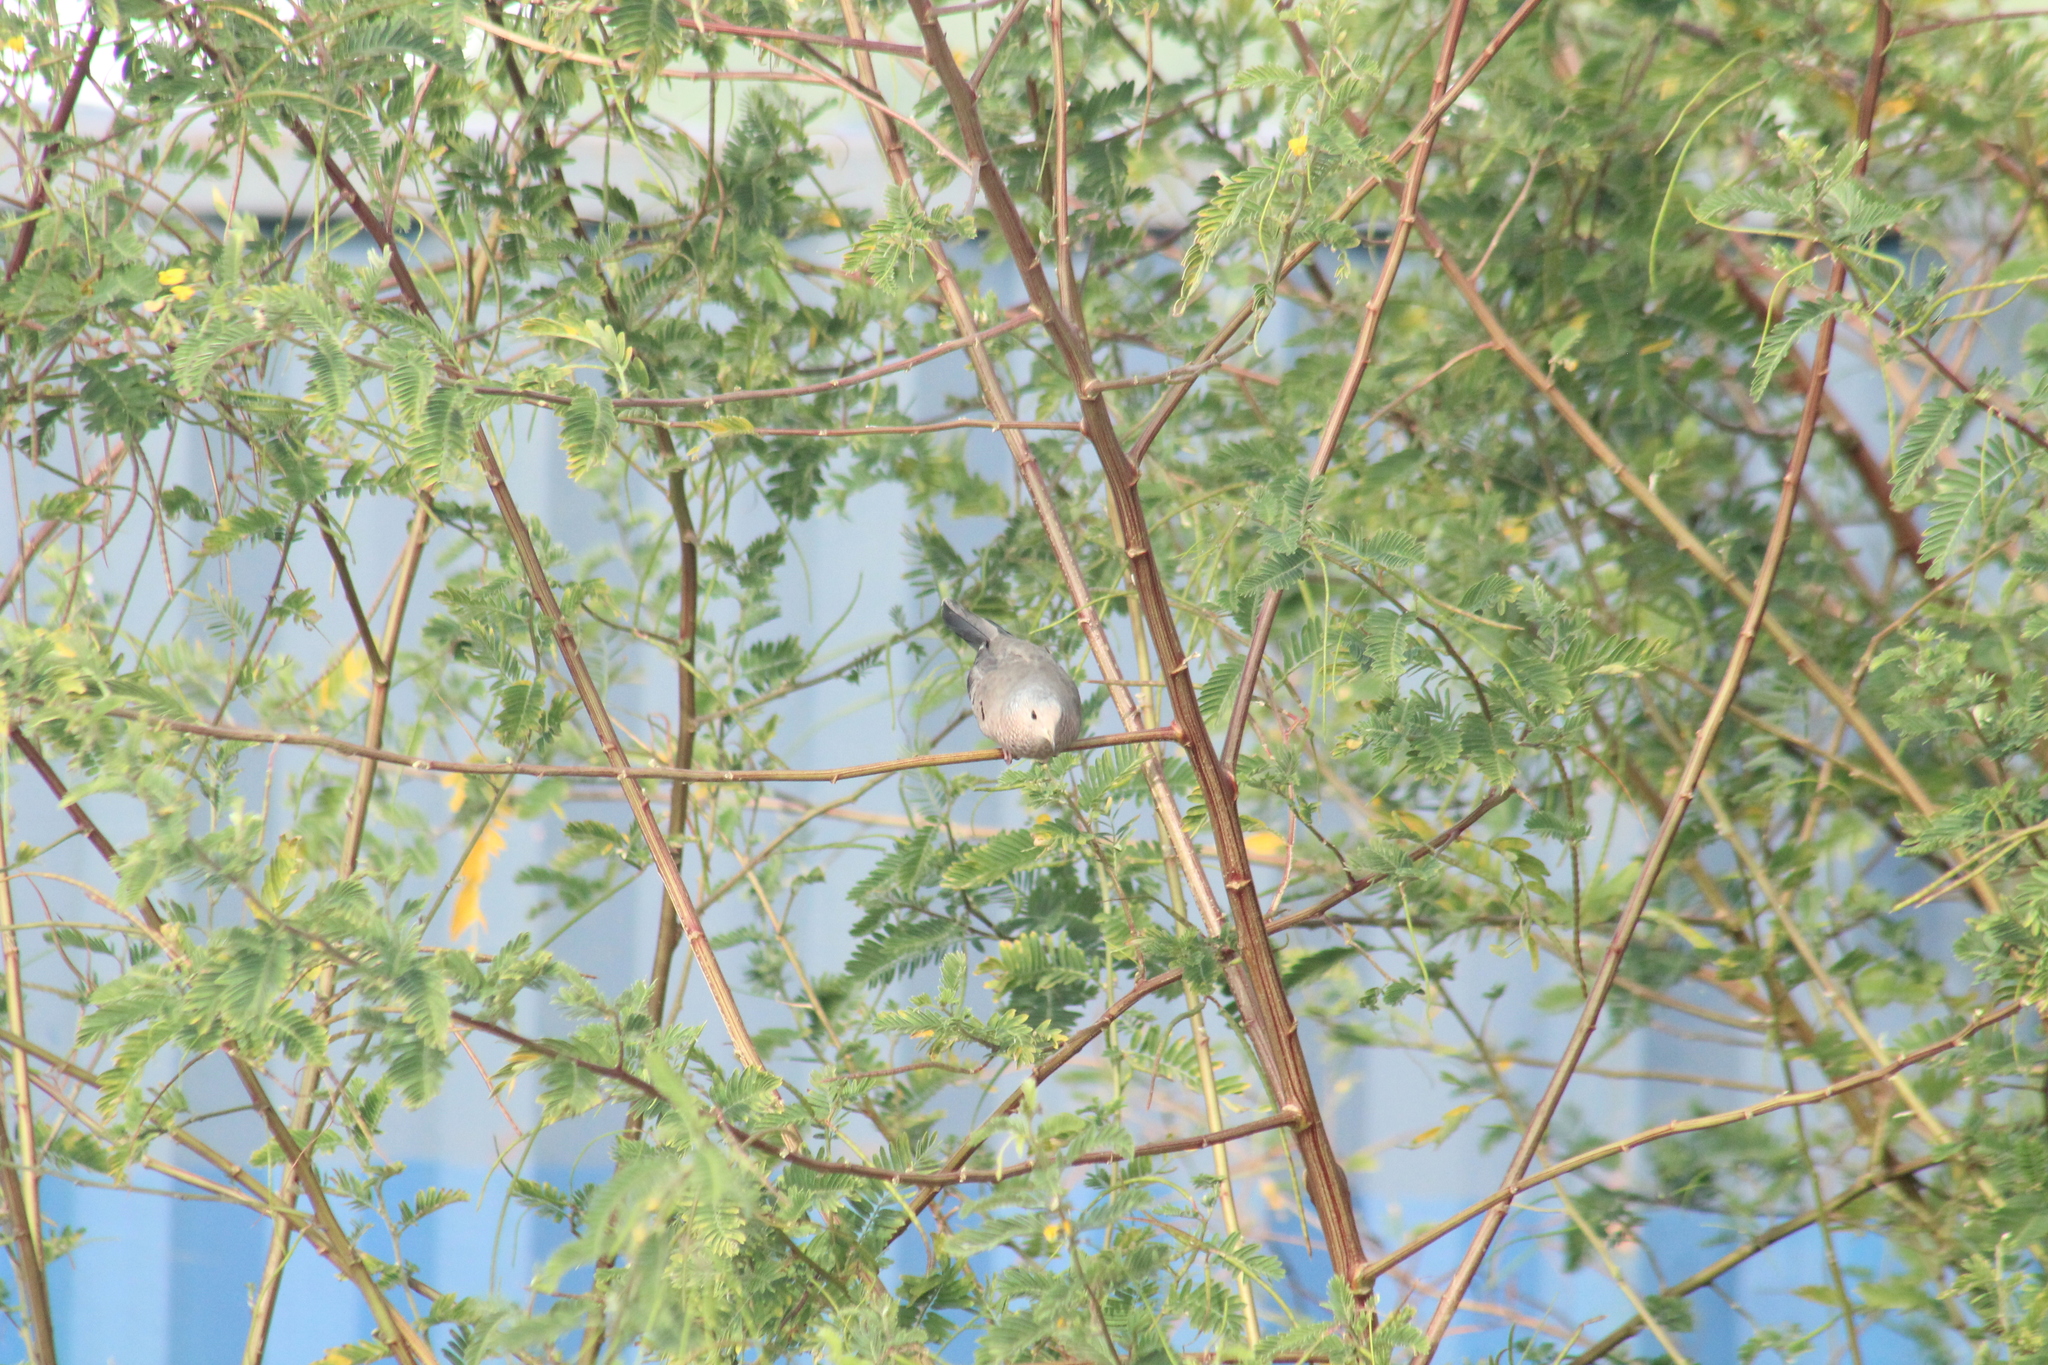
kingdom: Animalia
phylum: Chordata
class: Aves
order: Columbiformes
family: Columbidae
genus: Columbina
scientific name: Columbina passerina
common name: Common ground-dove
